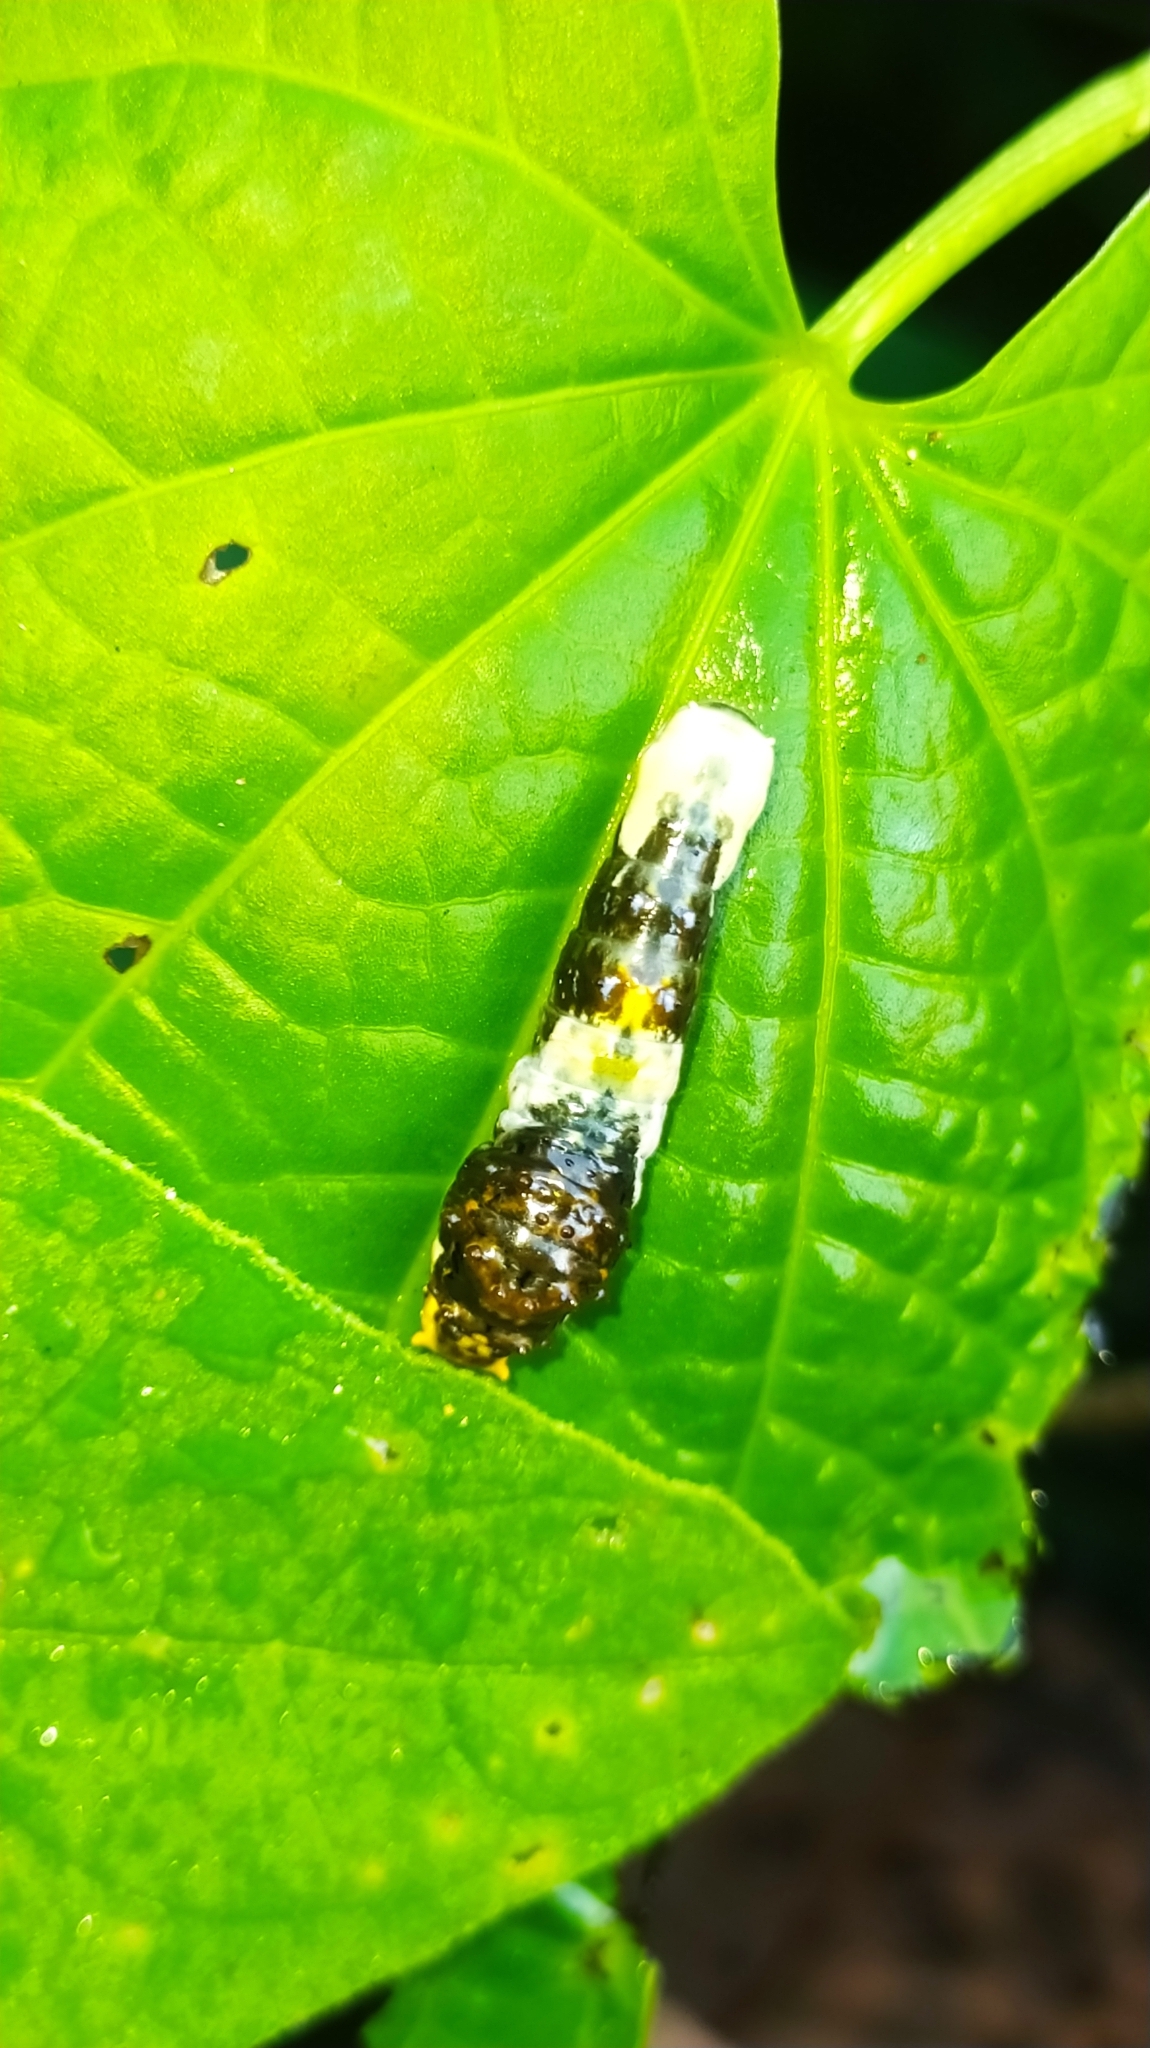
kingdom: Animalia
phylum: Arthropoda
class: Insecta
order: Lepidoptera
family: Papilionidae
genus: Papilio
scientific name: Papilio thoas
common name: King swallowtail
